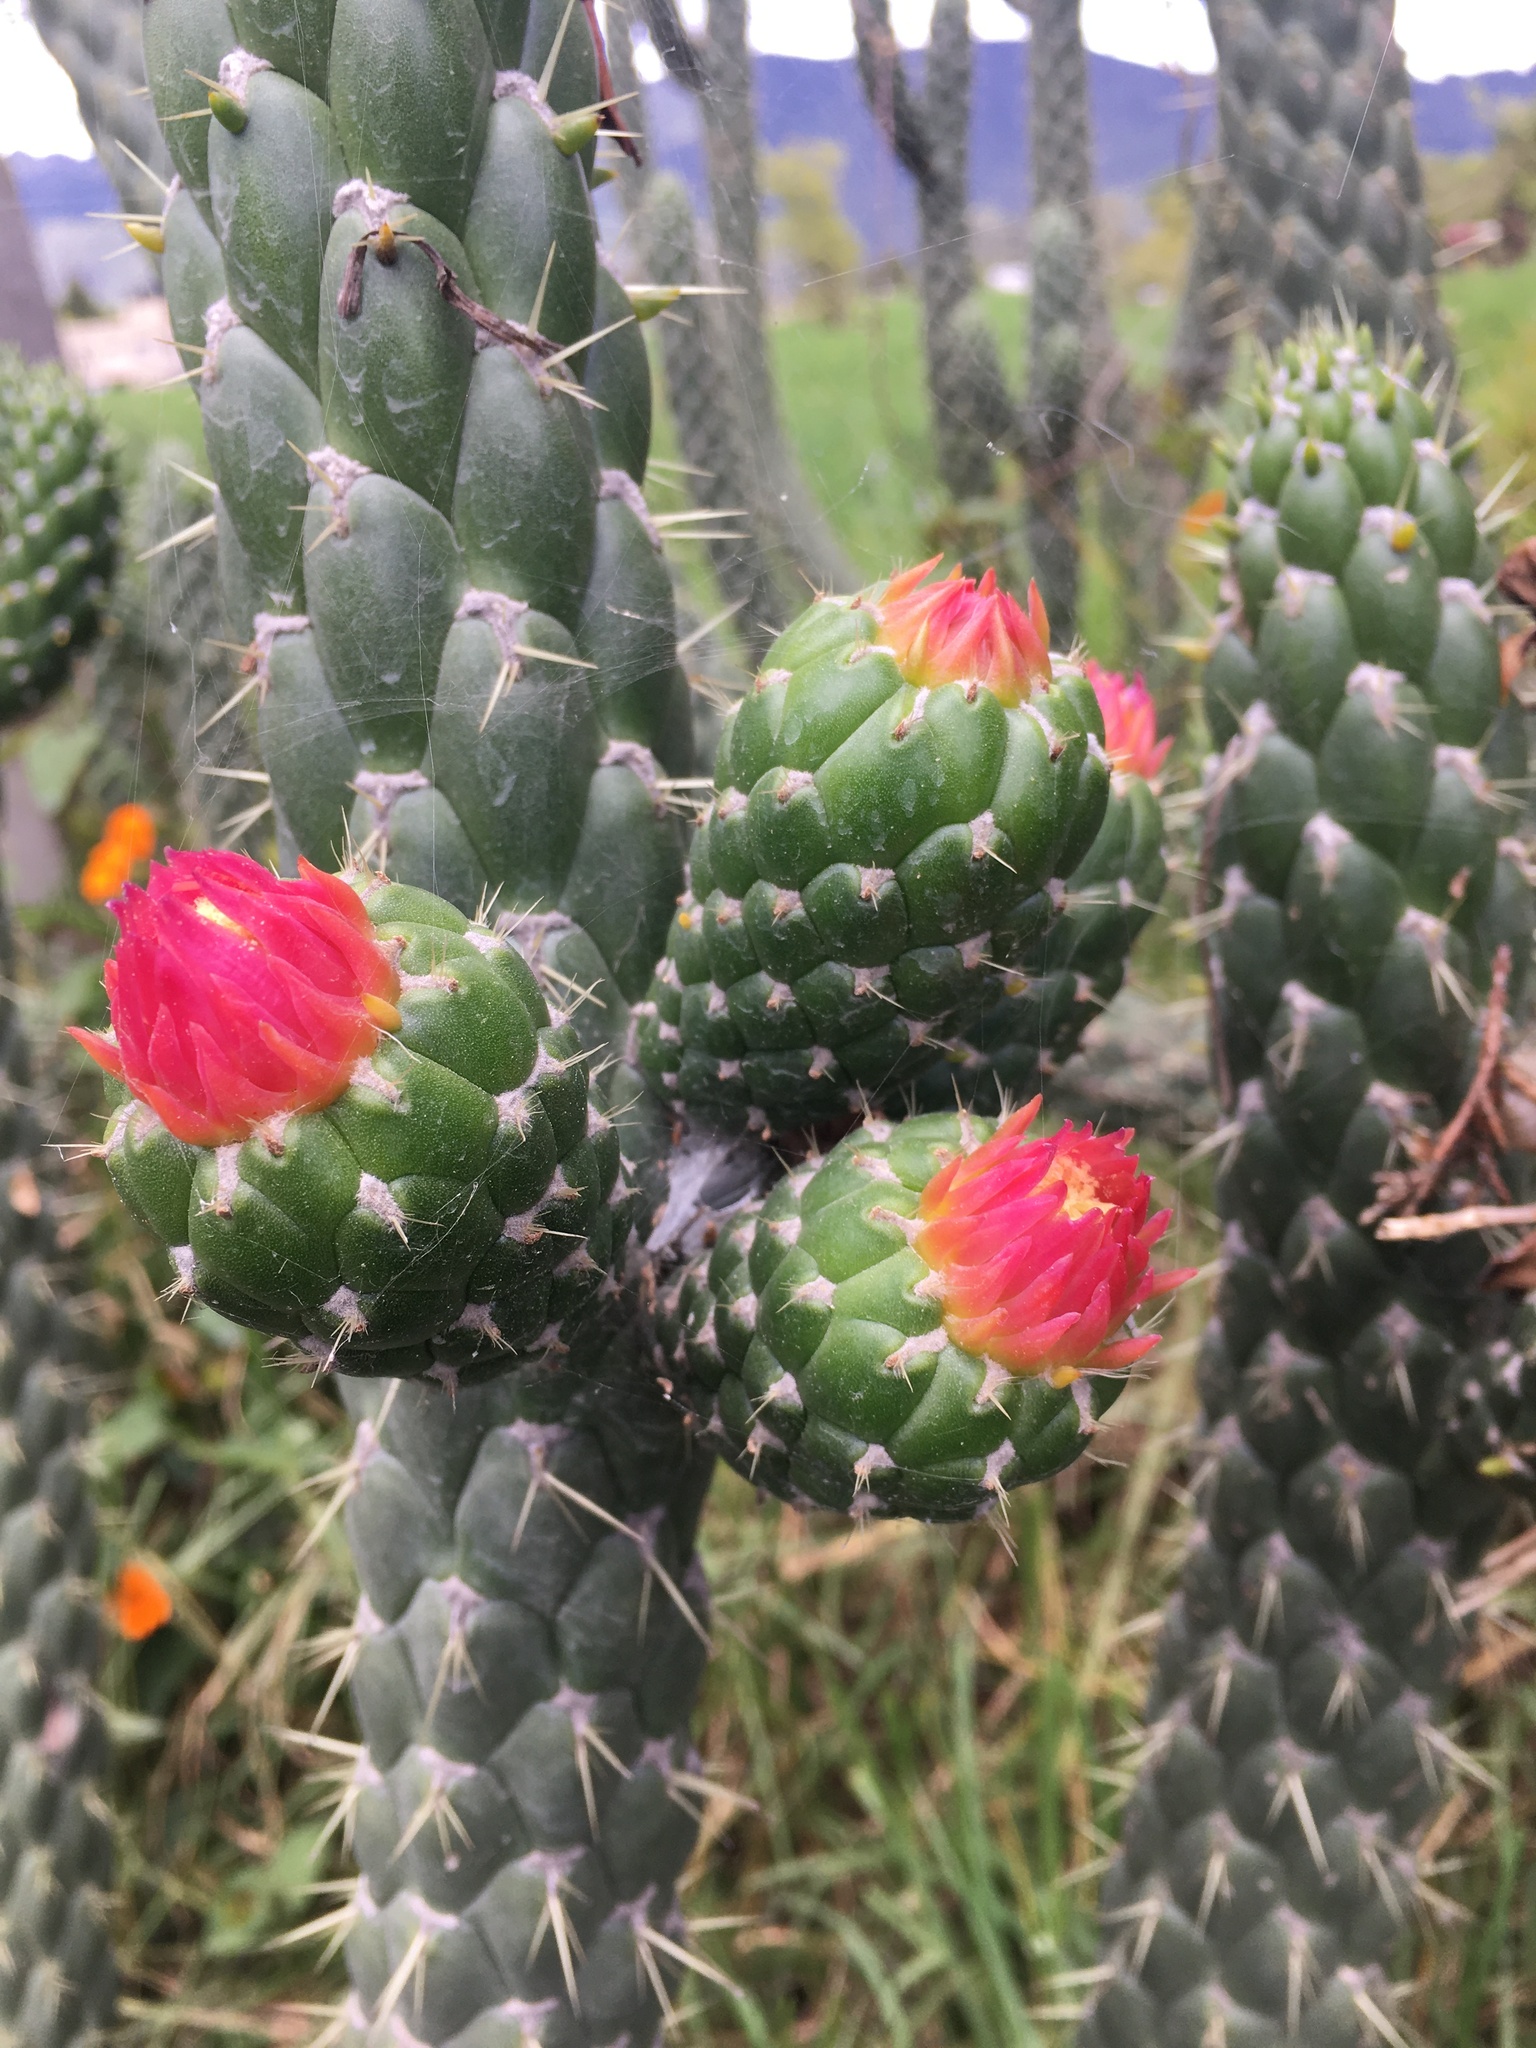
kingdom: Plantae
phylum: Tracheophyta
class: Magnoliopsida
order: Caryophyllales
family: Cactaceae
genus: Austrocylindropuntia
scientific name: Austrocylindropuntia cylindrica
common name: Cane cactus
